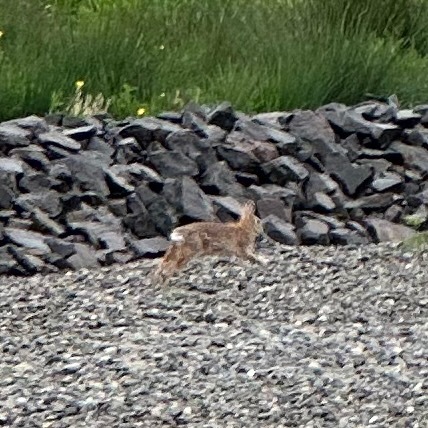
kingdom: Animalia
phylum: Chordata
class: Mammalia
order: Lagomorpha
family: Leporidae
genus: Sylvilagus
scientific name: Sylvilagus floridanus
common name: Eastern cottontail
